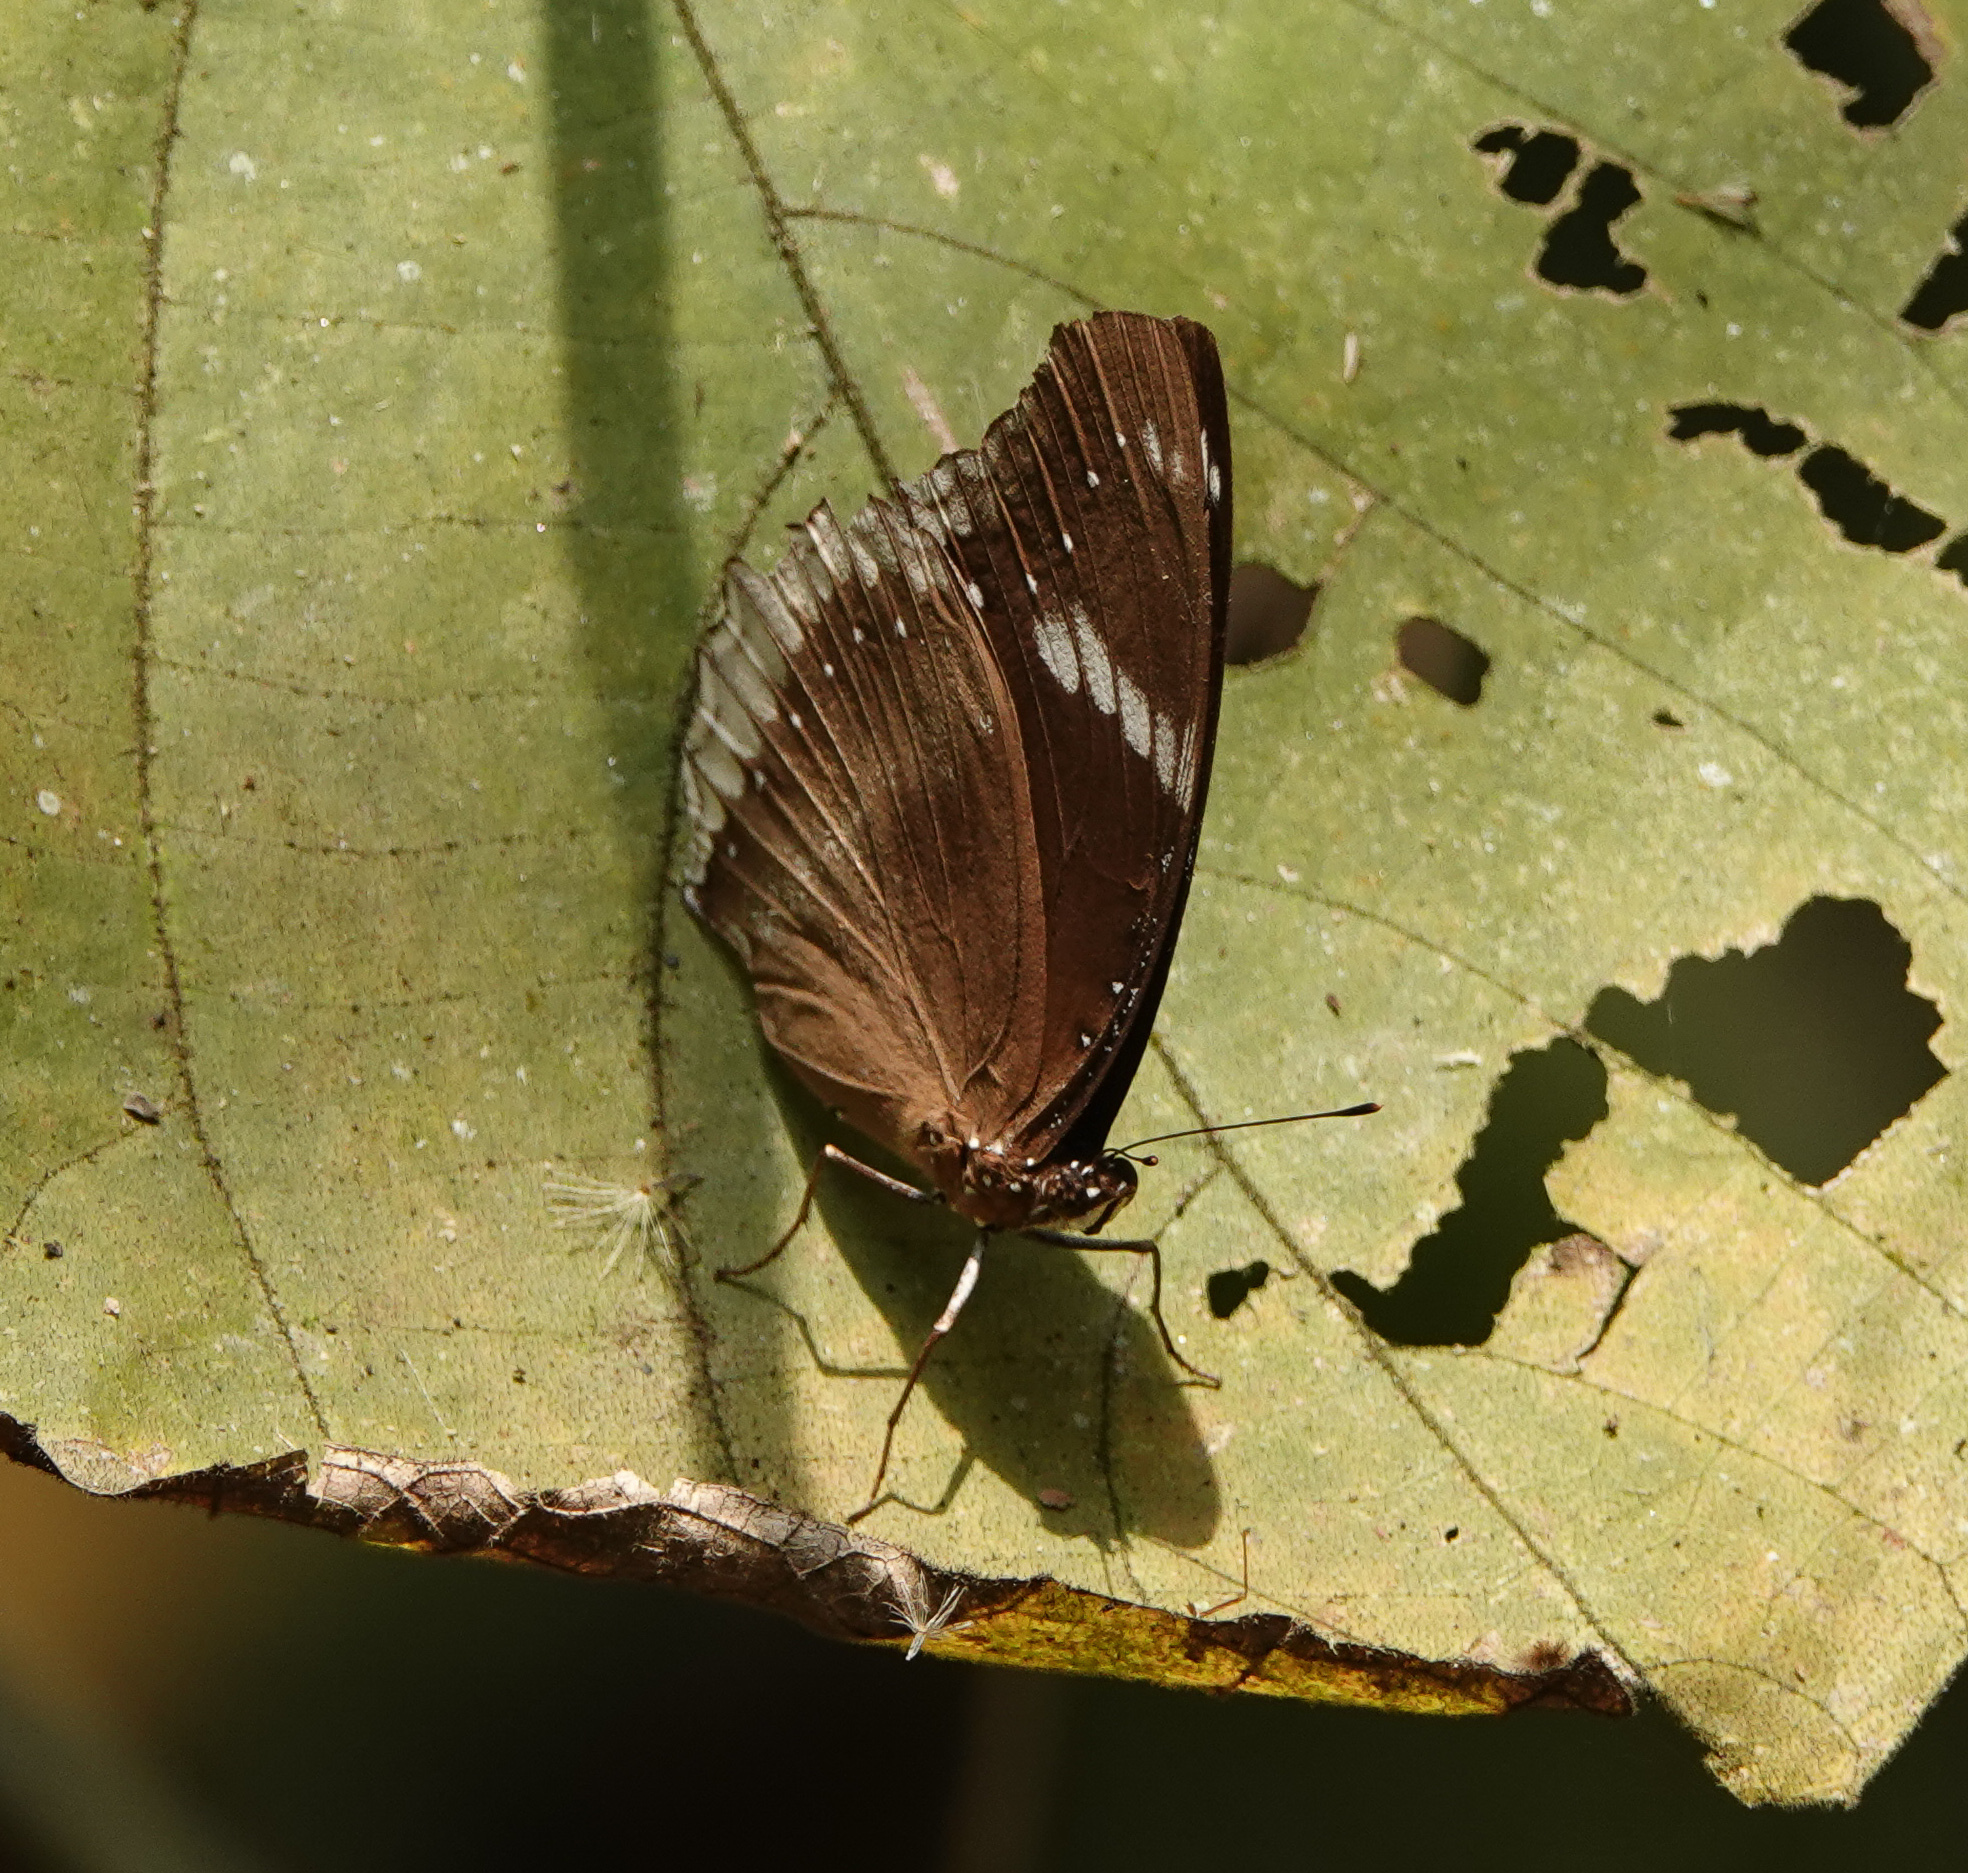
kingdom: Animalia
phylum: Arthropoda
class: Insecta
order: Lepidoptera
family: Nymphalidae
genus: Hypolimnas
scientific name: Hypolimnas bolina
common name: Great eggfly
